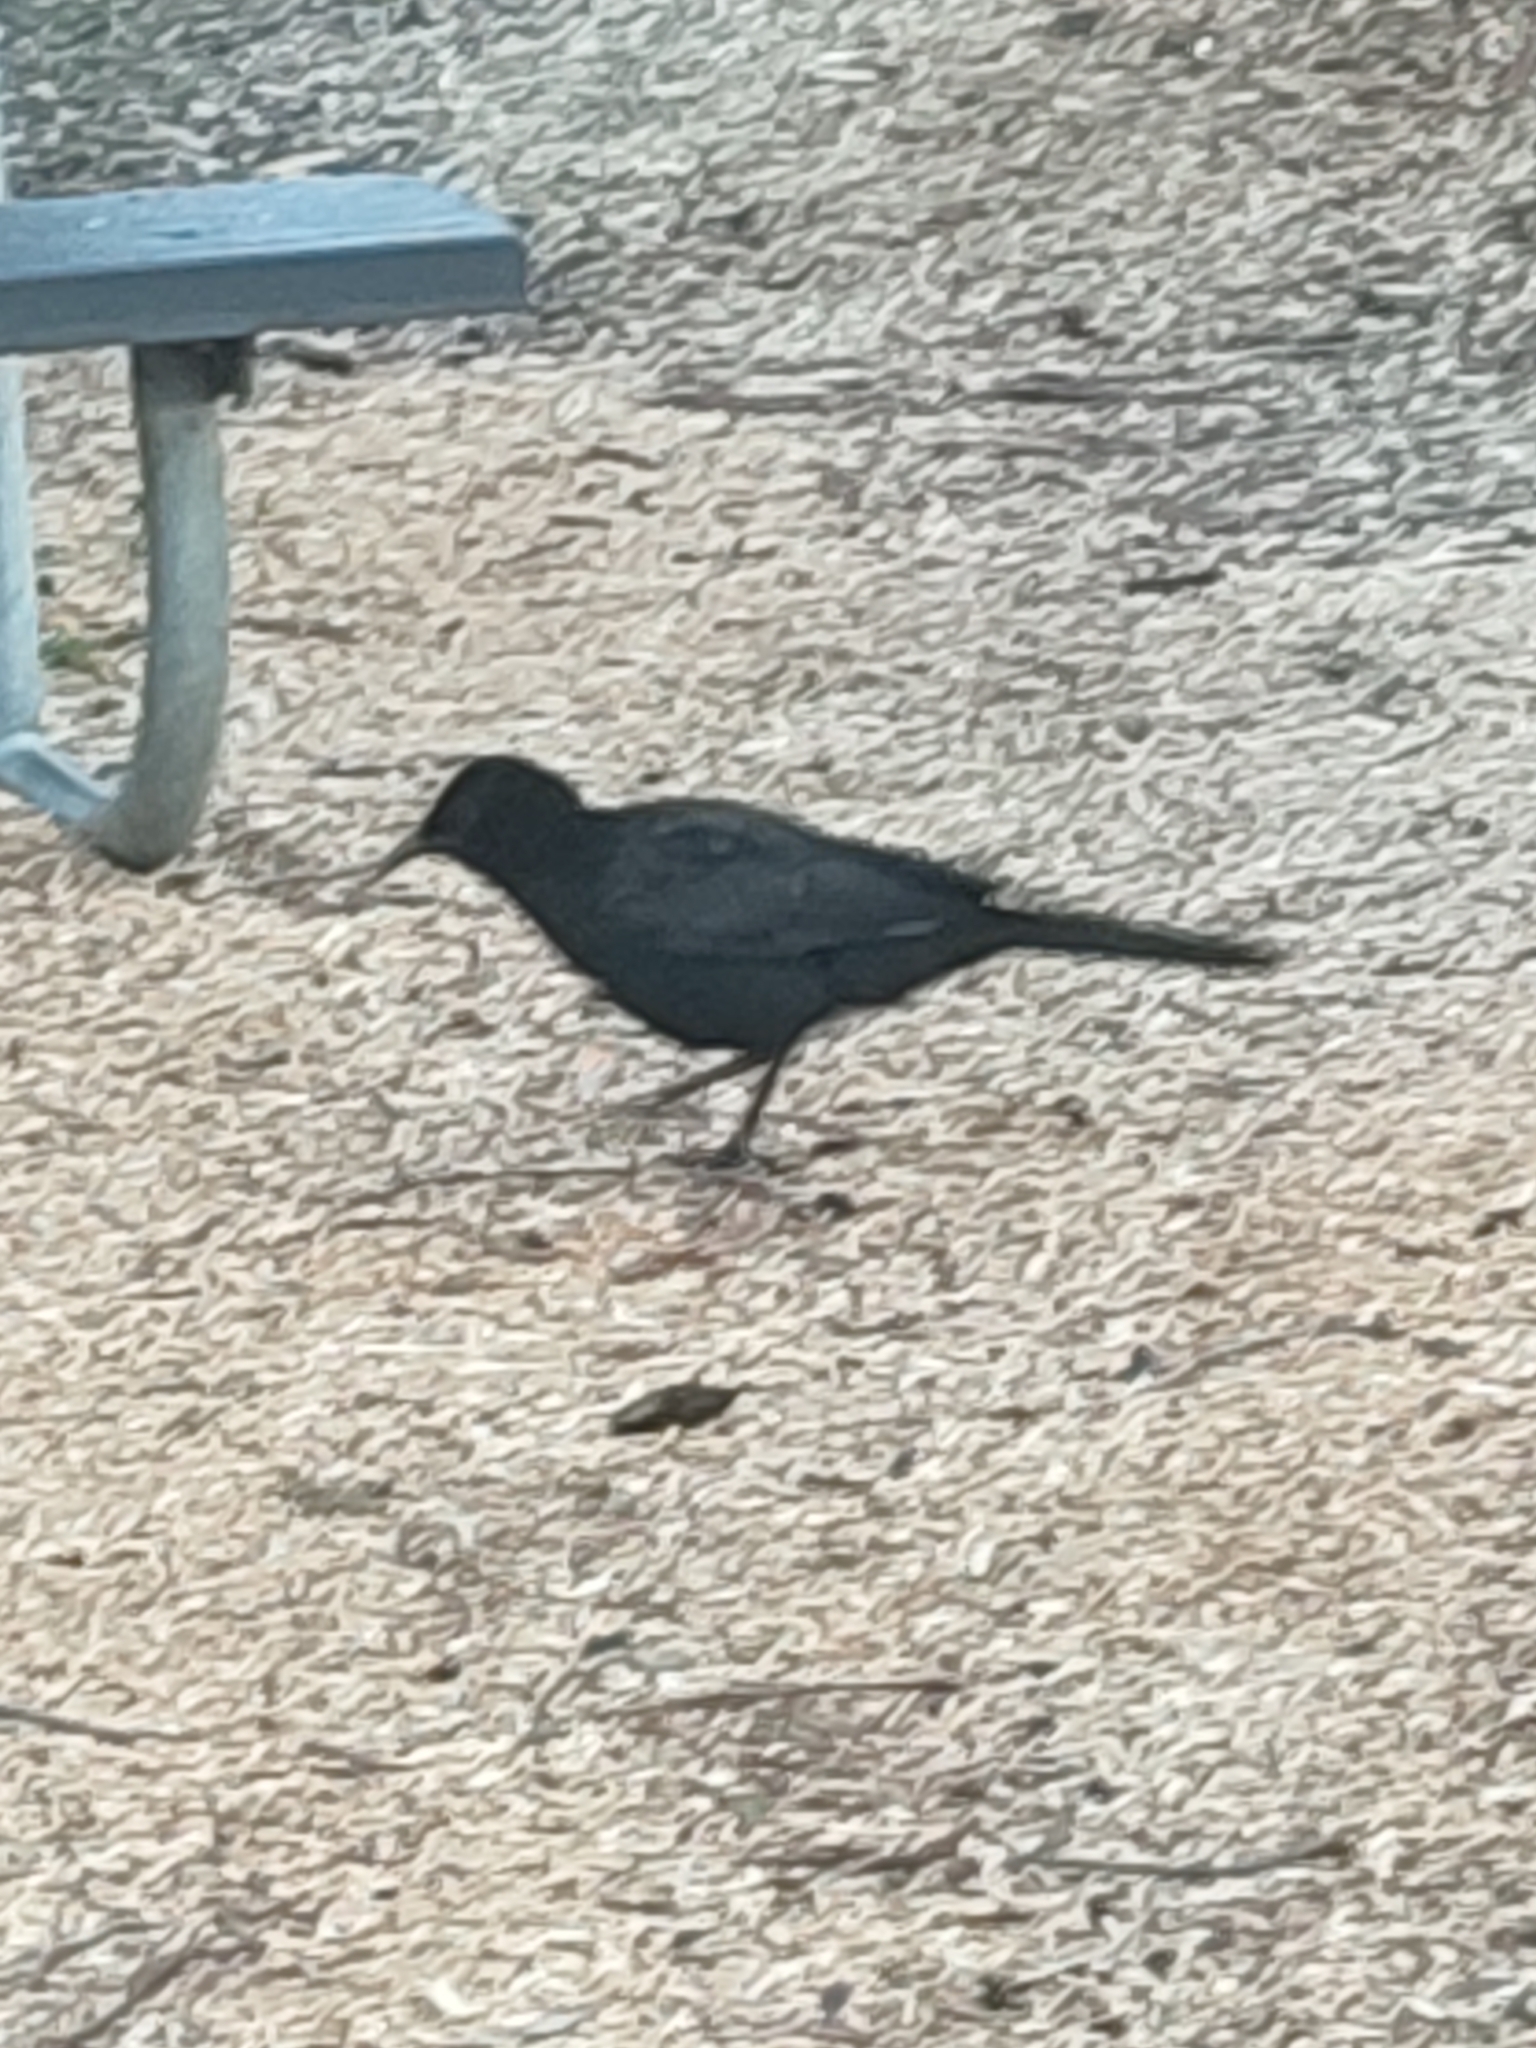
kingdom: Animalia
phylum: Chordata
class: Aves
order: Passeriformes
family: Corcoracidae
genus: Corcorax
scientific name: Corcorax melanoramphos
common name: White-winged chough
